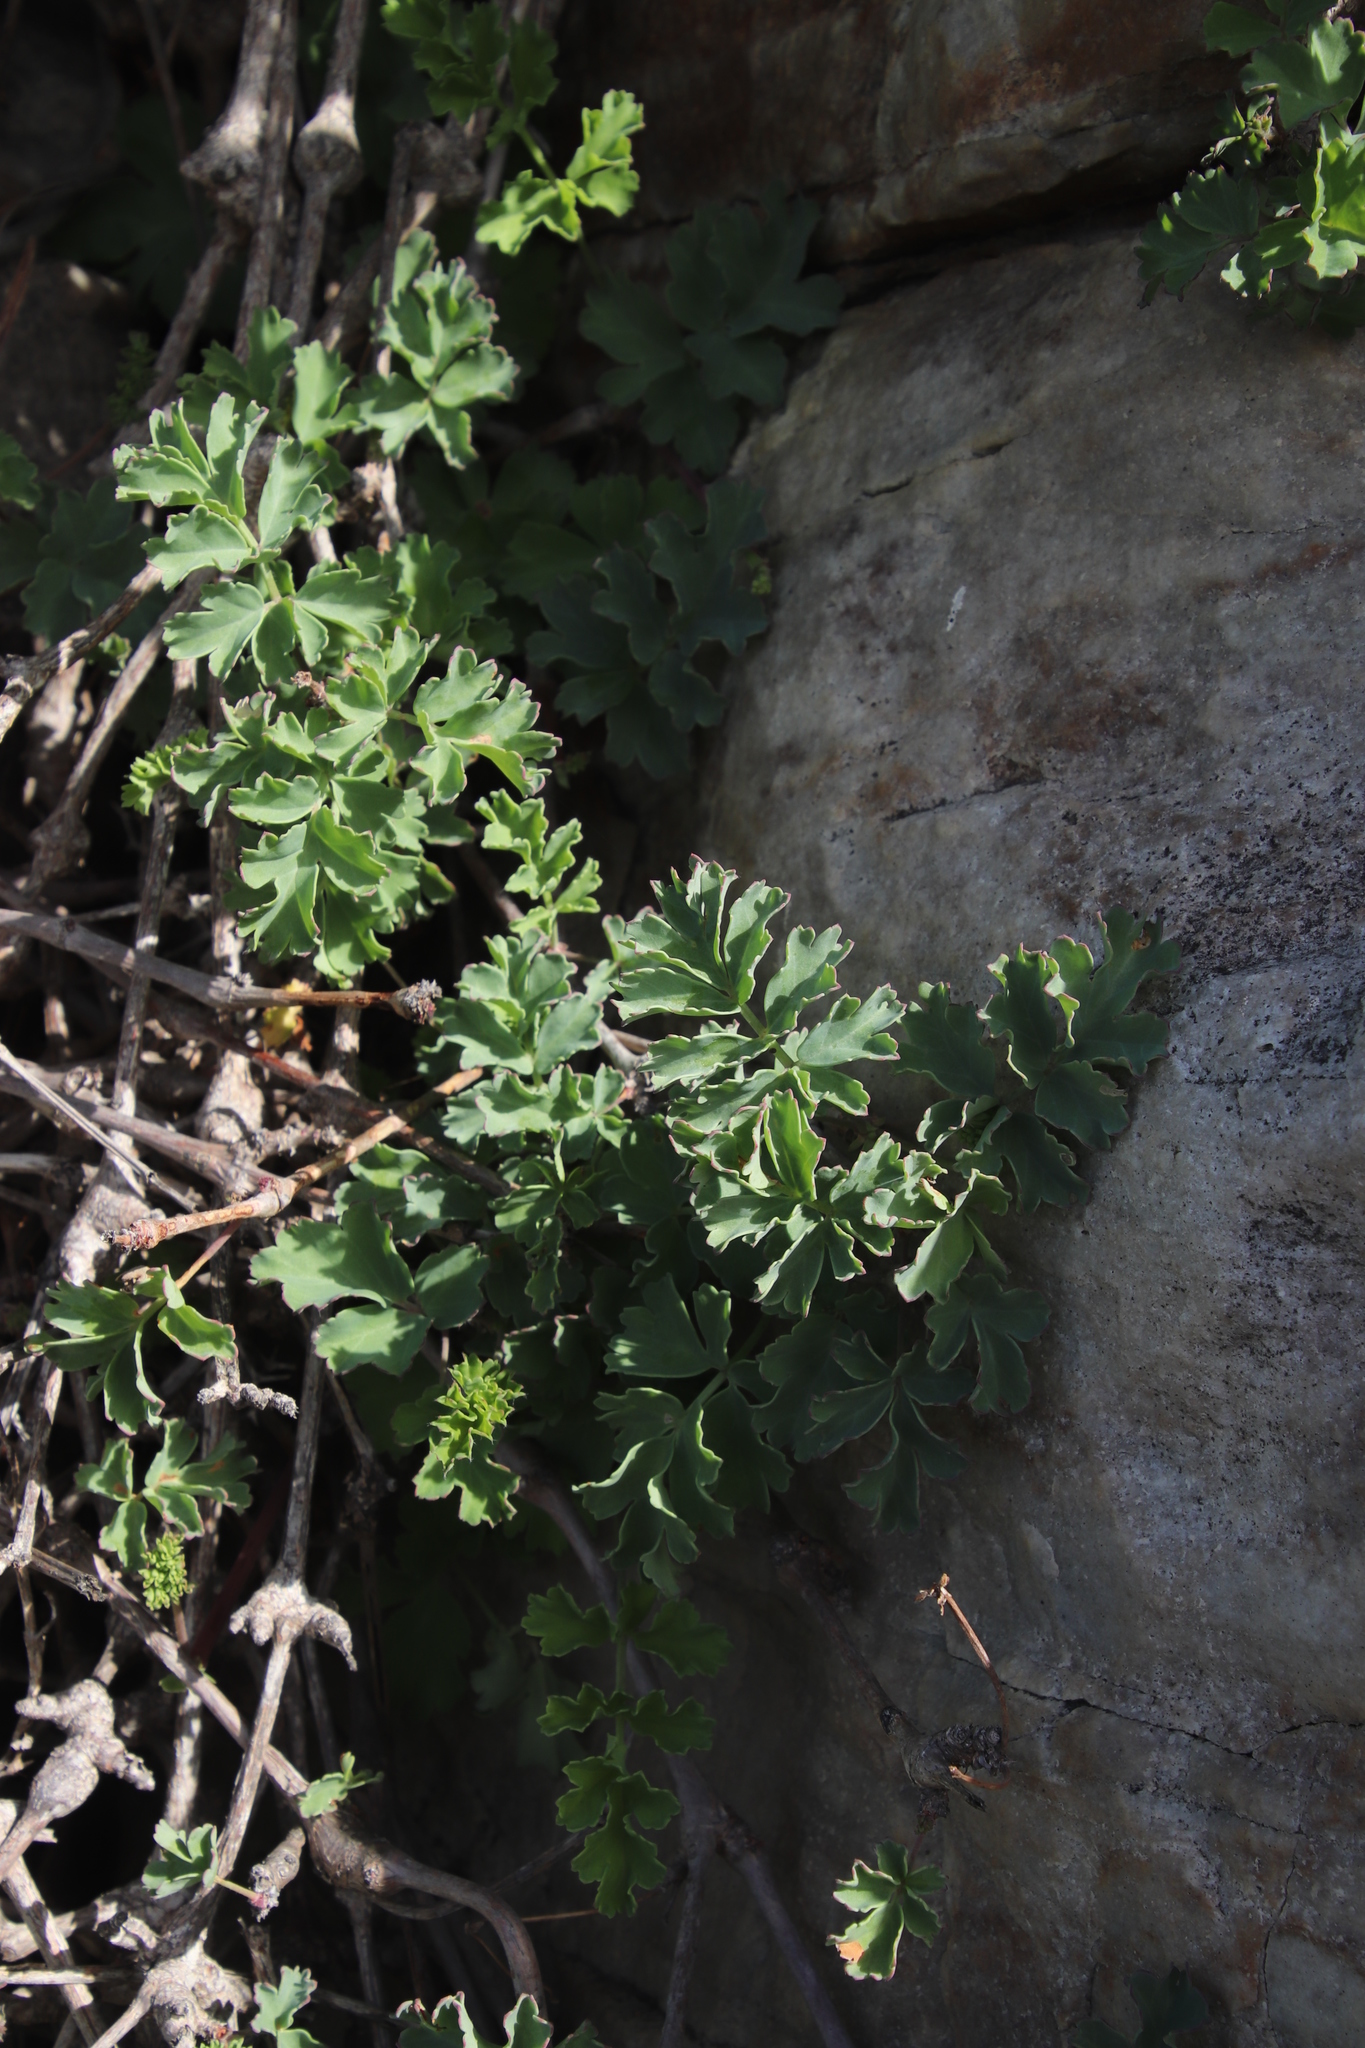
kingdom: Plantae
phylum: Tracheophyta
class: Magnoliopsida
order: Geraniales
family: Geraniaceae
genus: Pelargonium
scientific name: Pelargonium gibbosum
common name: Gouty geranium
